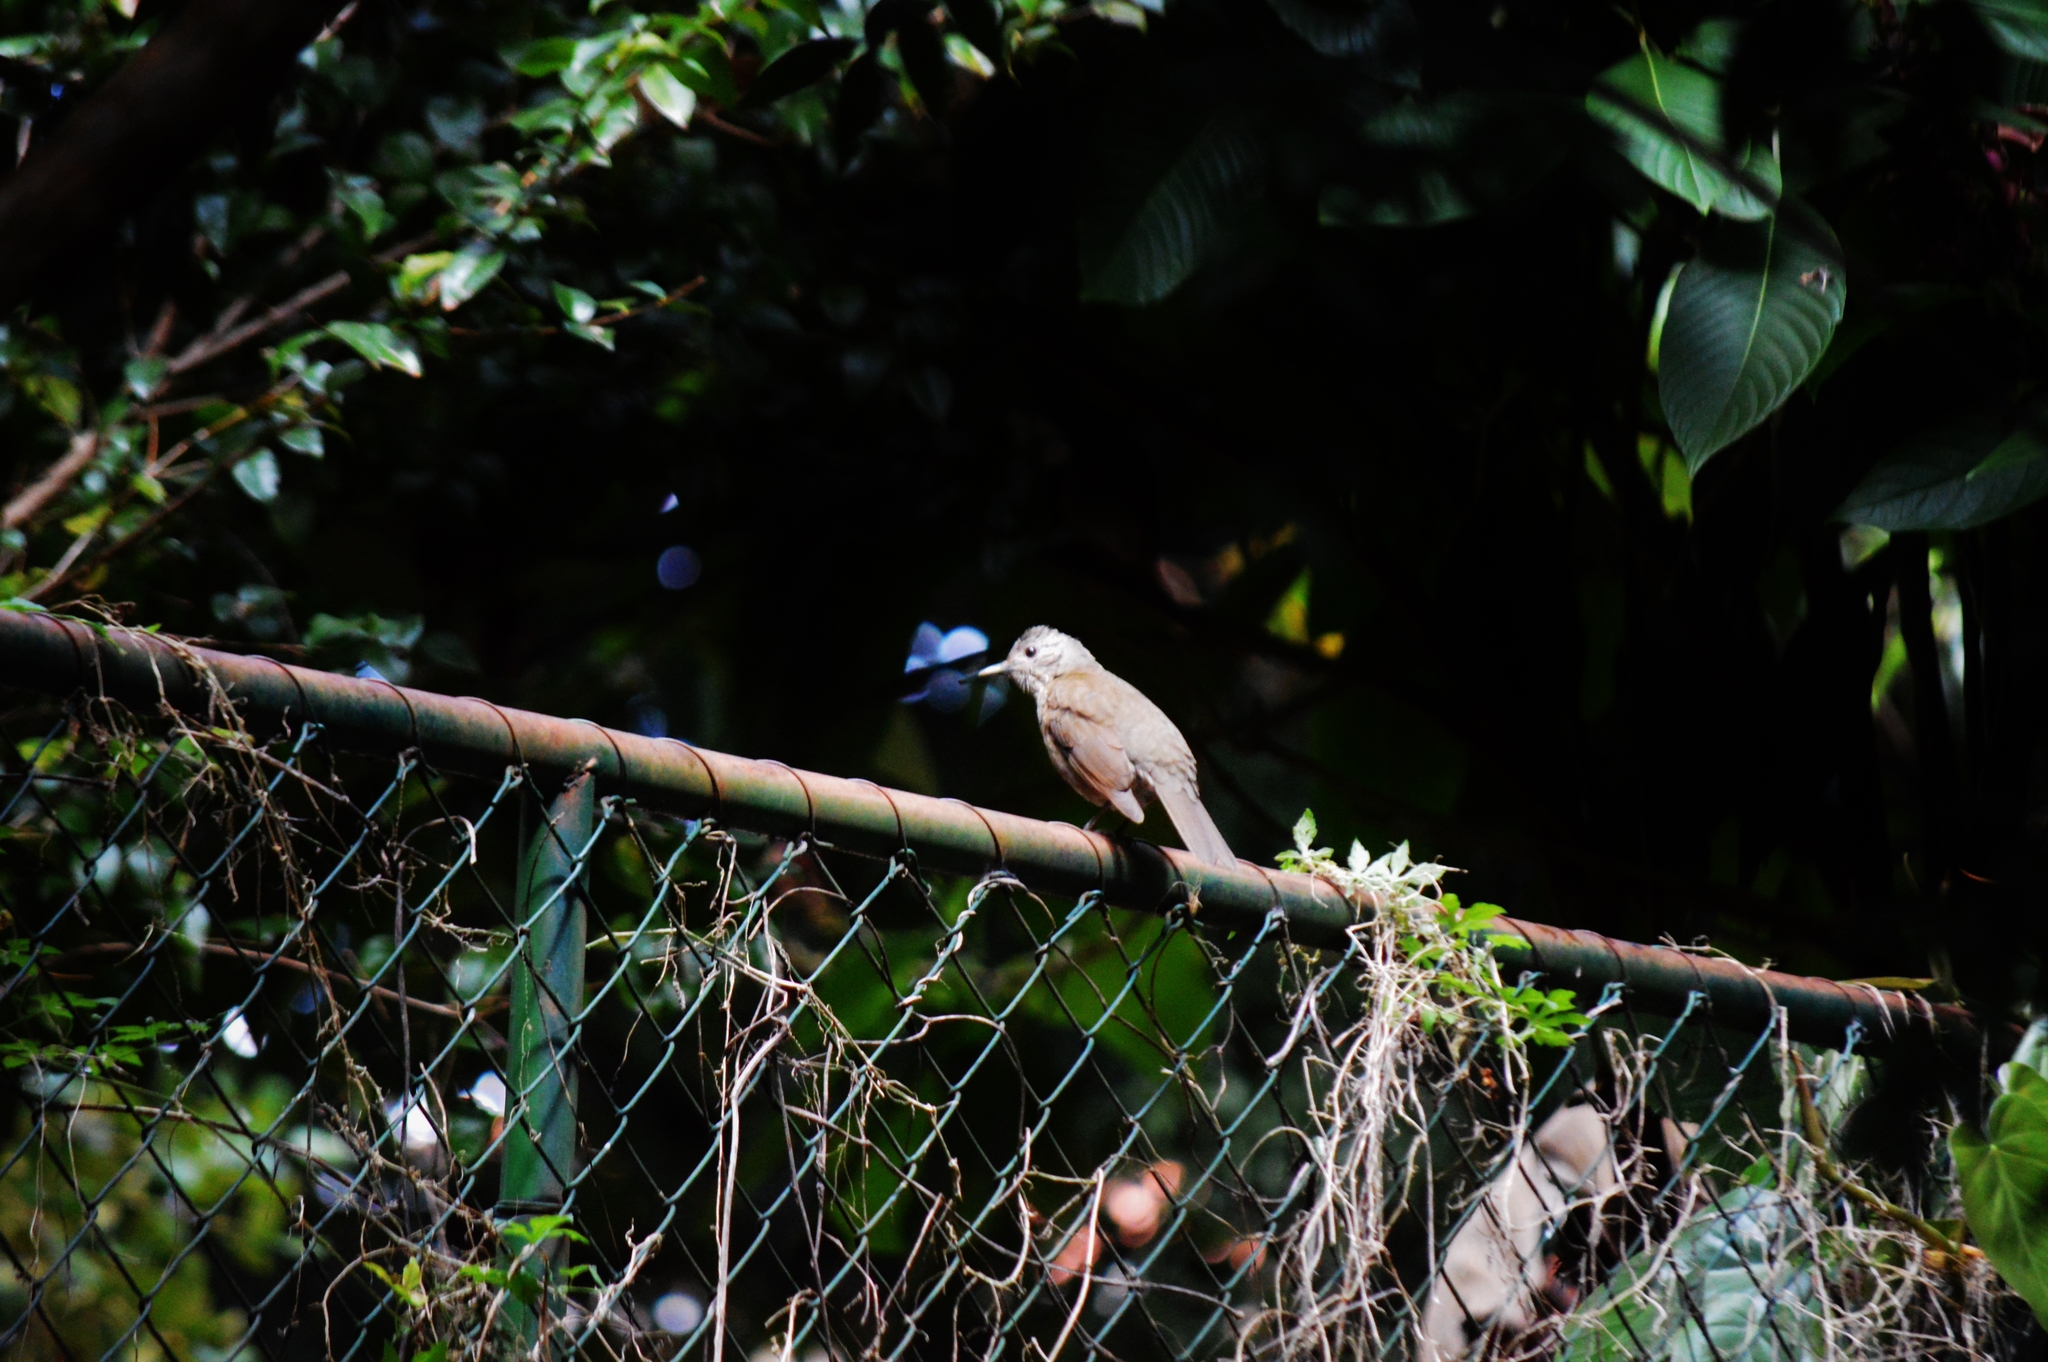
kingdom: Animalia
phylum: Chordata
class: Aves
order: Passeriformes
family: Turdidae
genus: Turdus
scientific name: Turdus leucomelas
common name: Pale-breasted thrush
